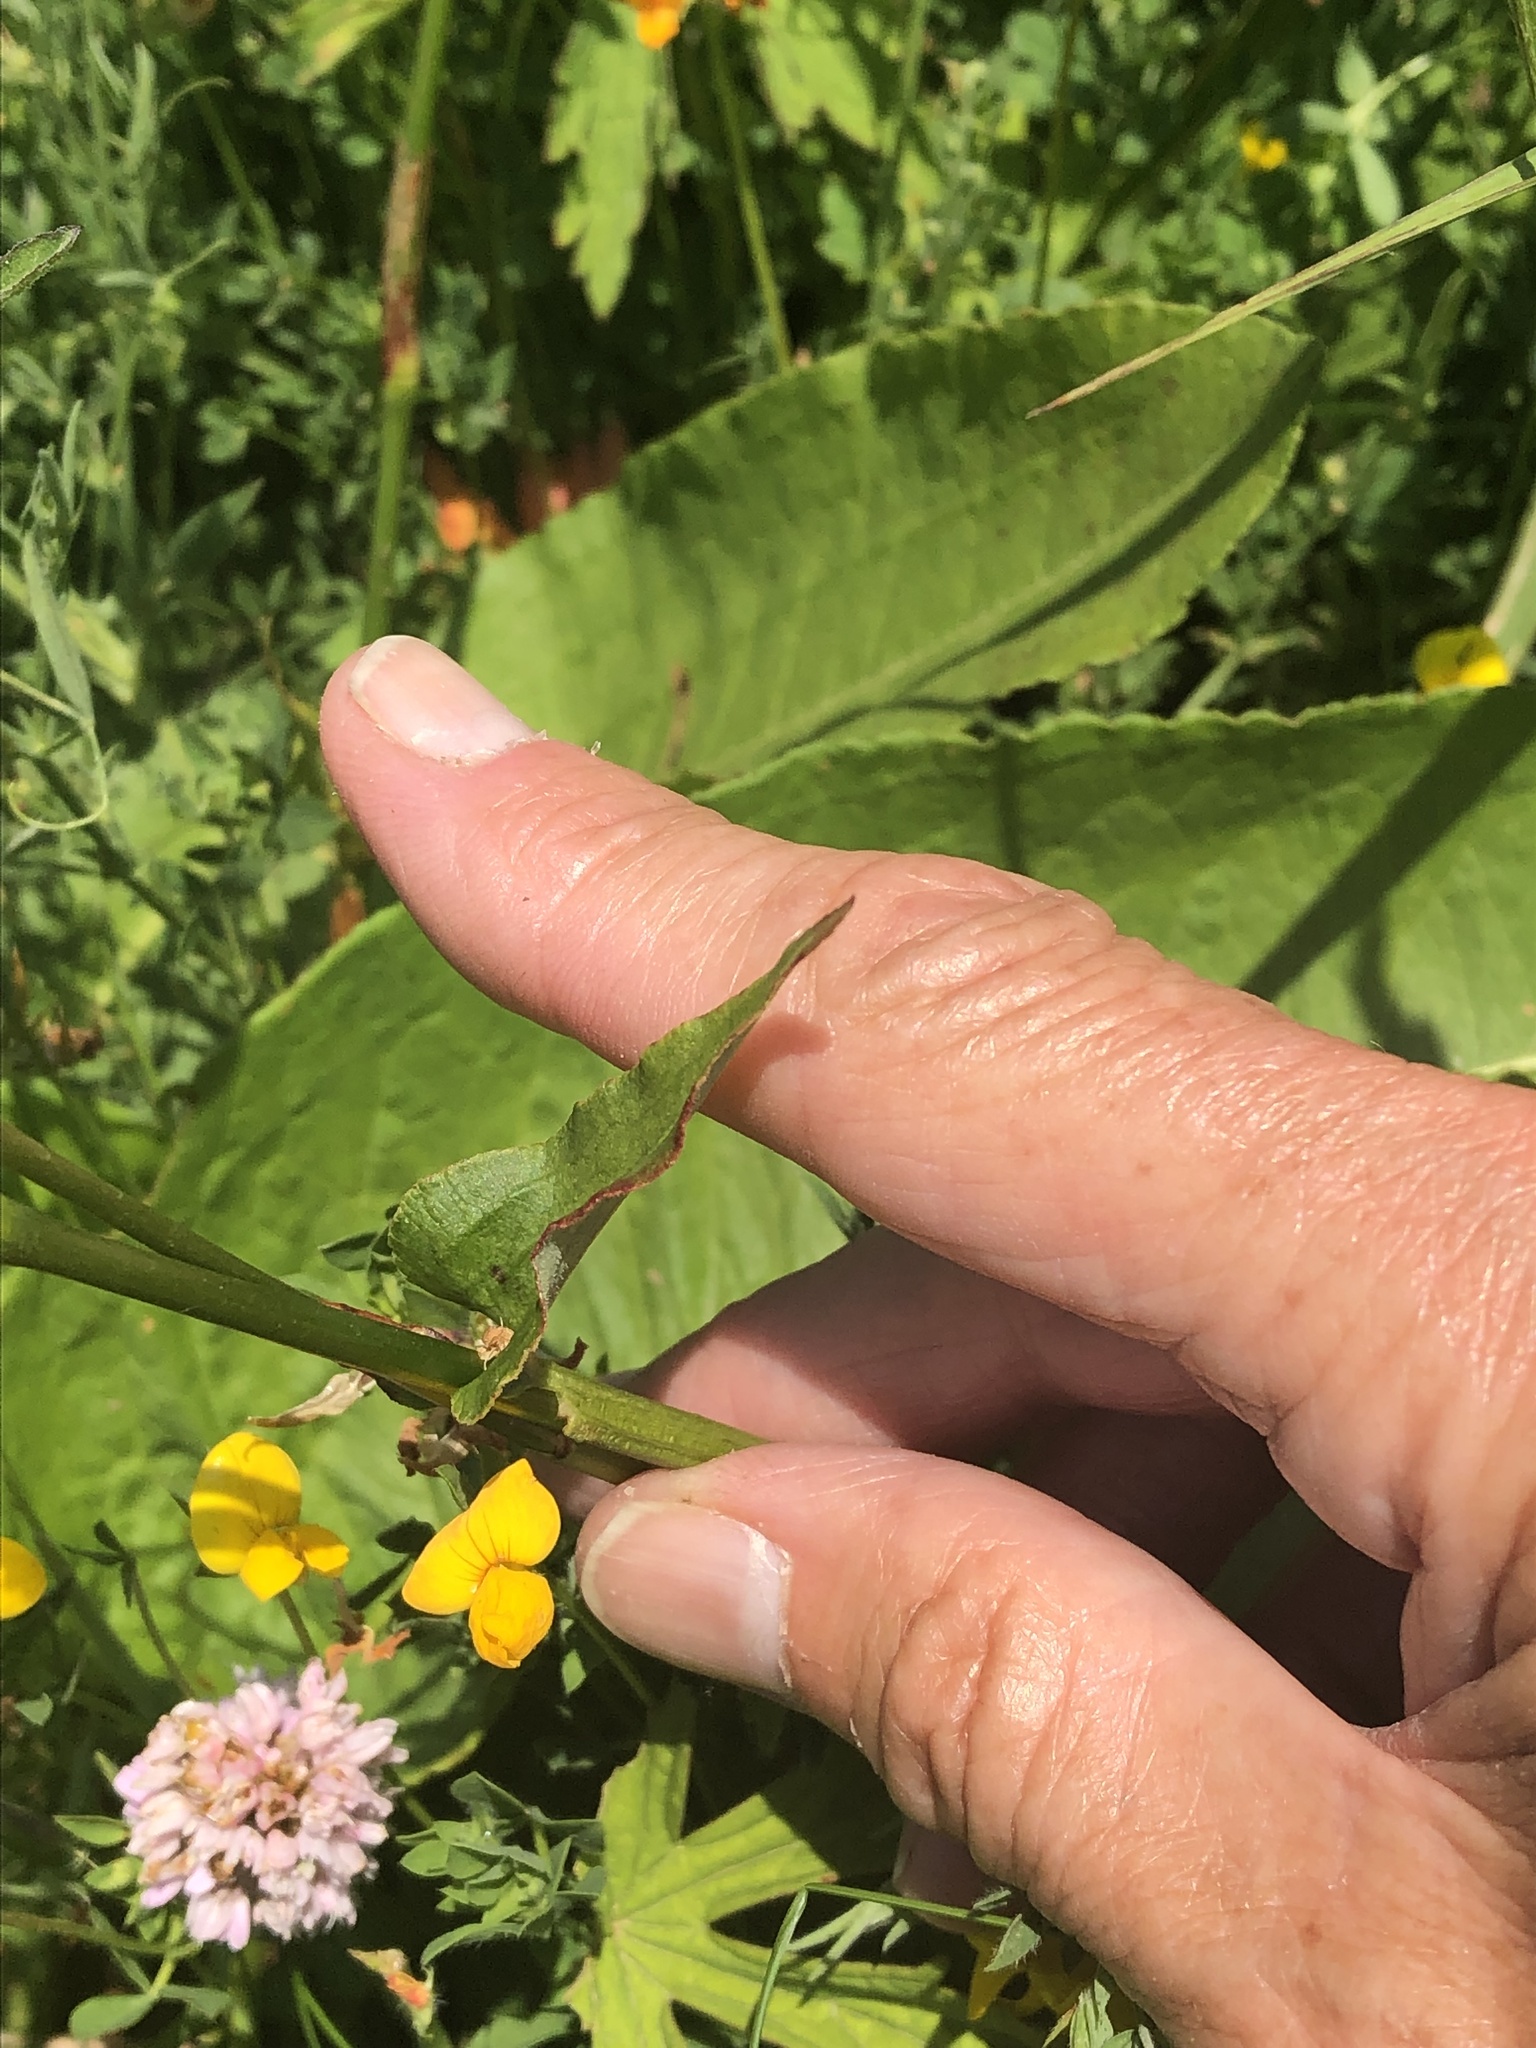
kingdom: Plantae
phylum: Tracheophyta
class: Magnoliopsida
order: Caryophyllales
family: Polygonaceae
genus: Bistorta
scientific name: Bistorta officinalis
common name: Common bistort
